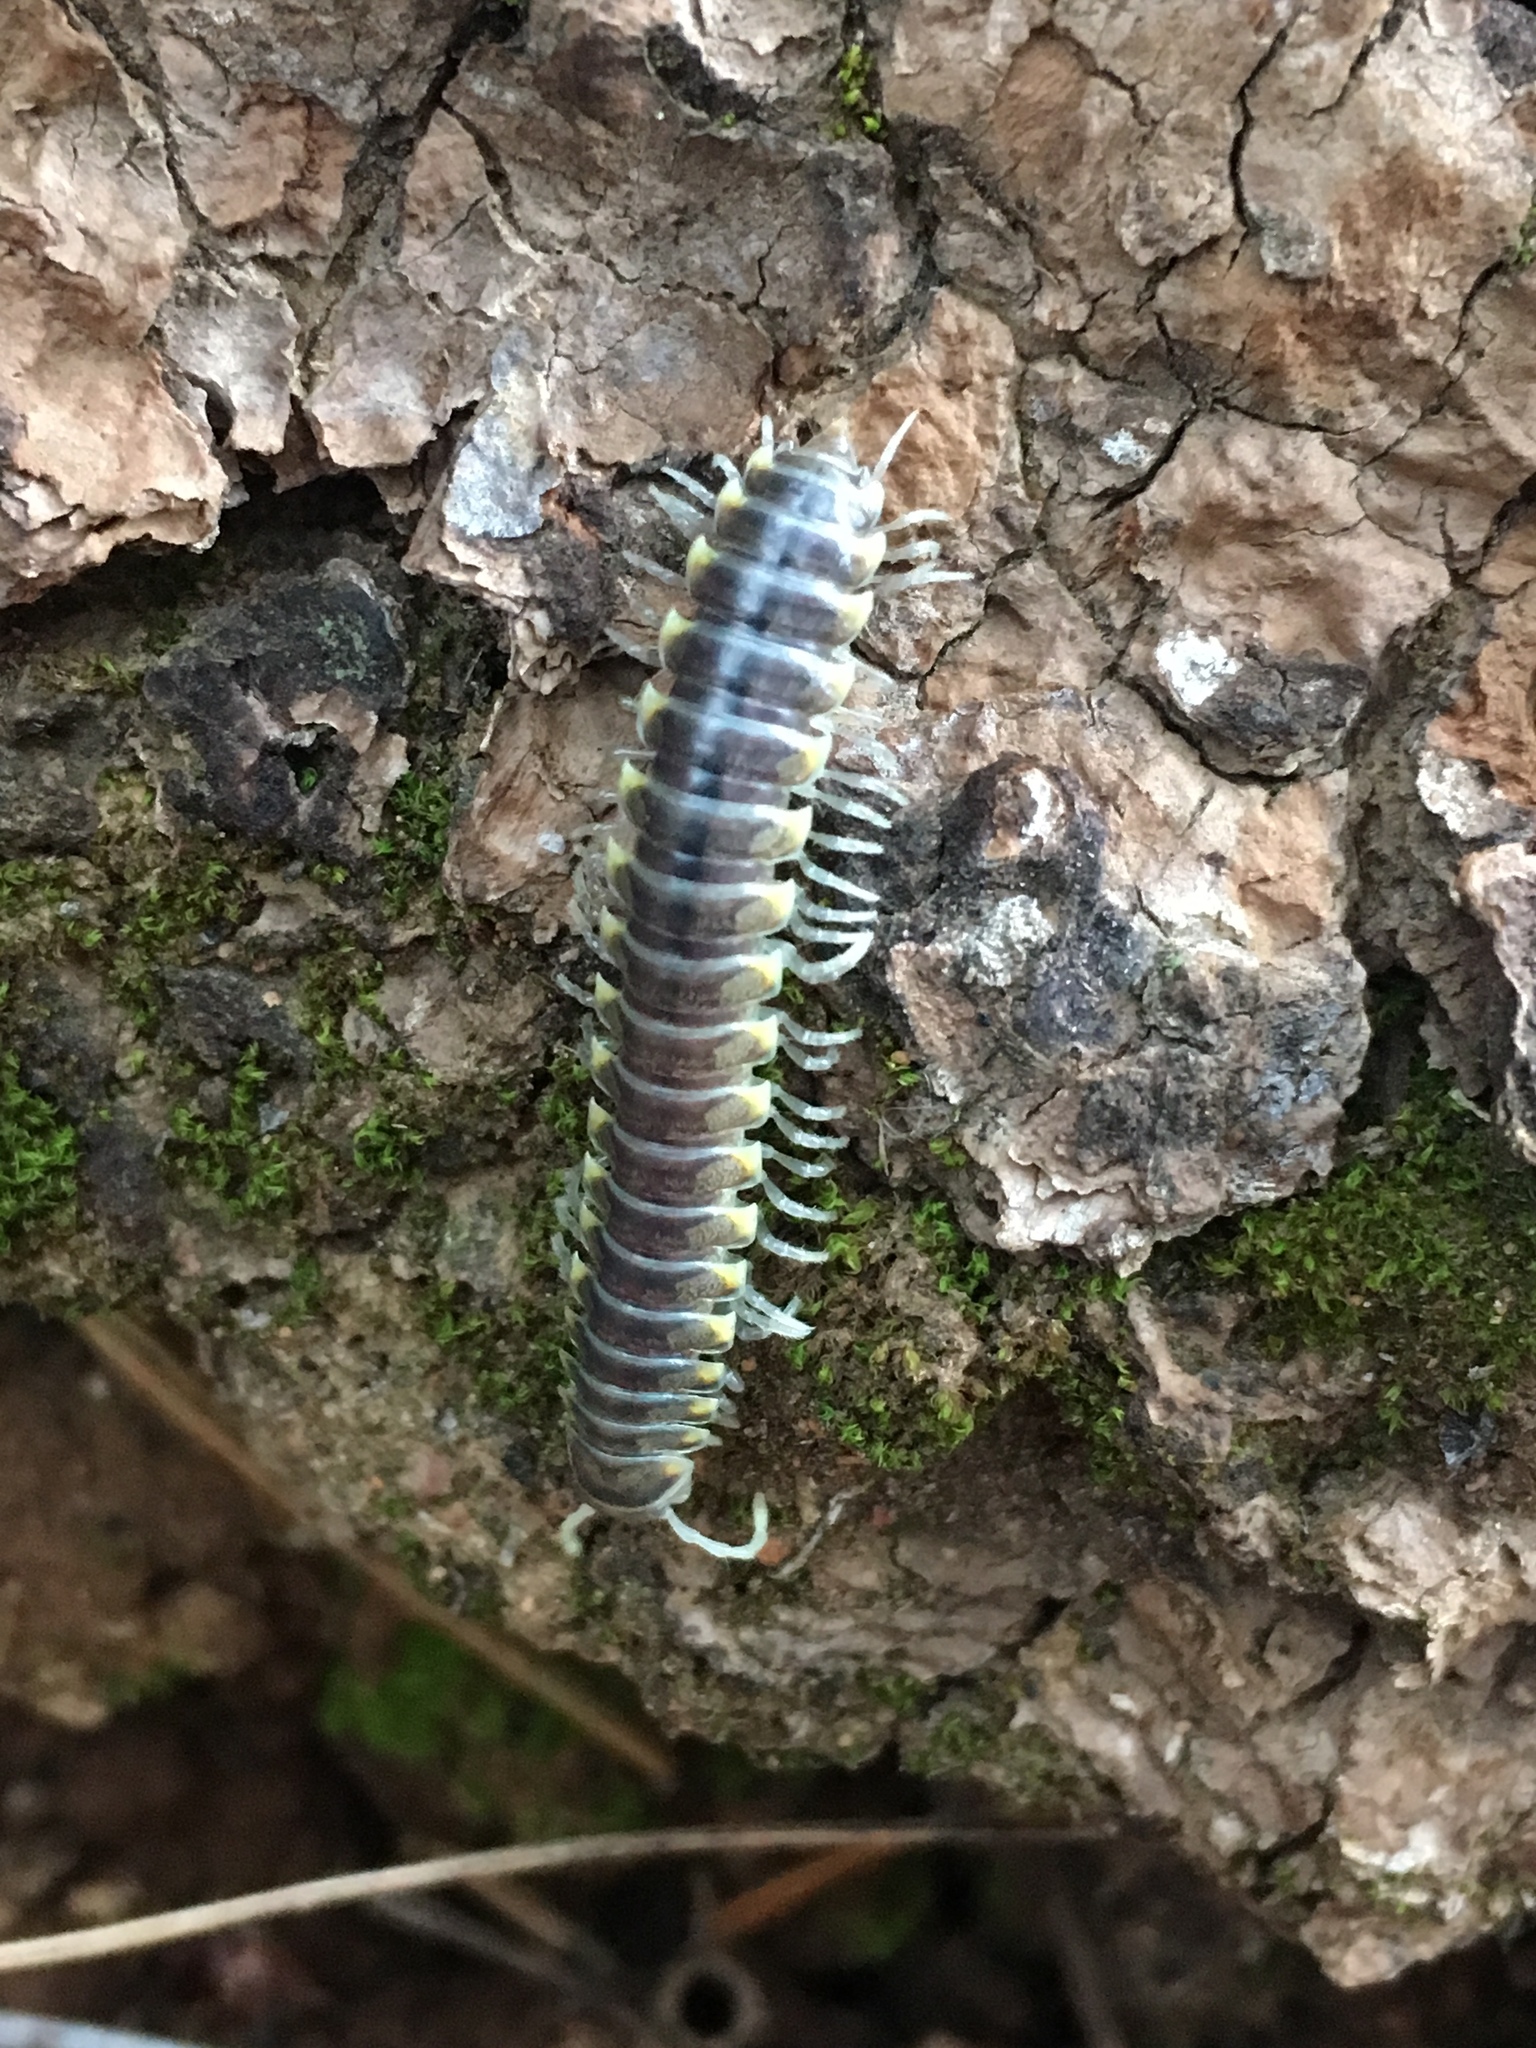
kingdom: Animalia
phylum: Arthropoda
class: Diplopoda
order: Polydesmida
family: Xystodesmidae
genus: Xystocheir
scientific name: Xystocheir brachymacris
